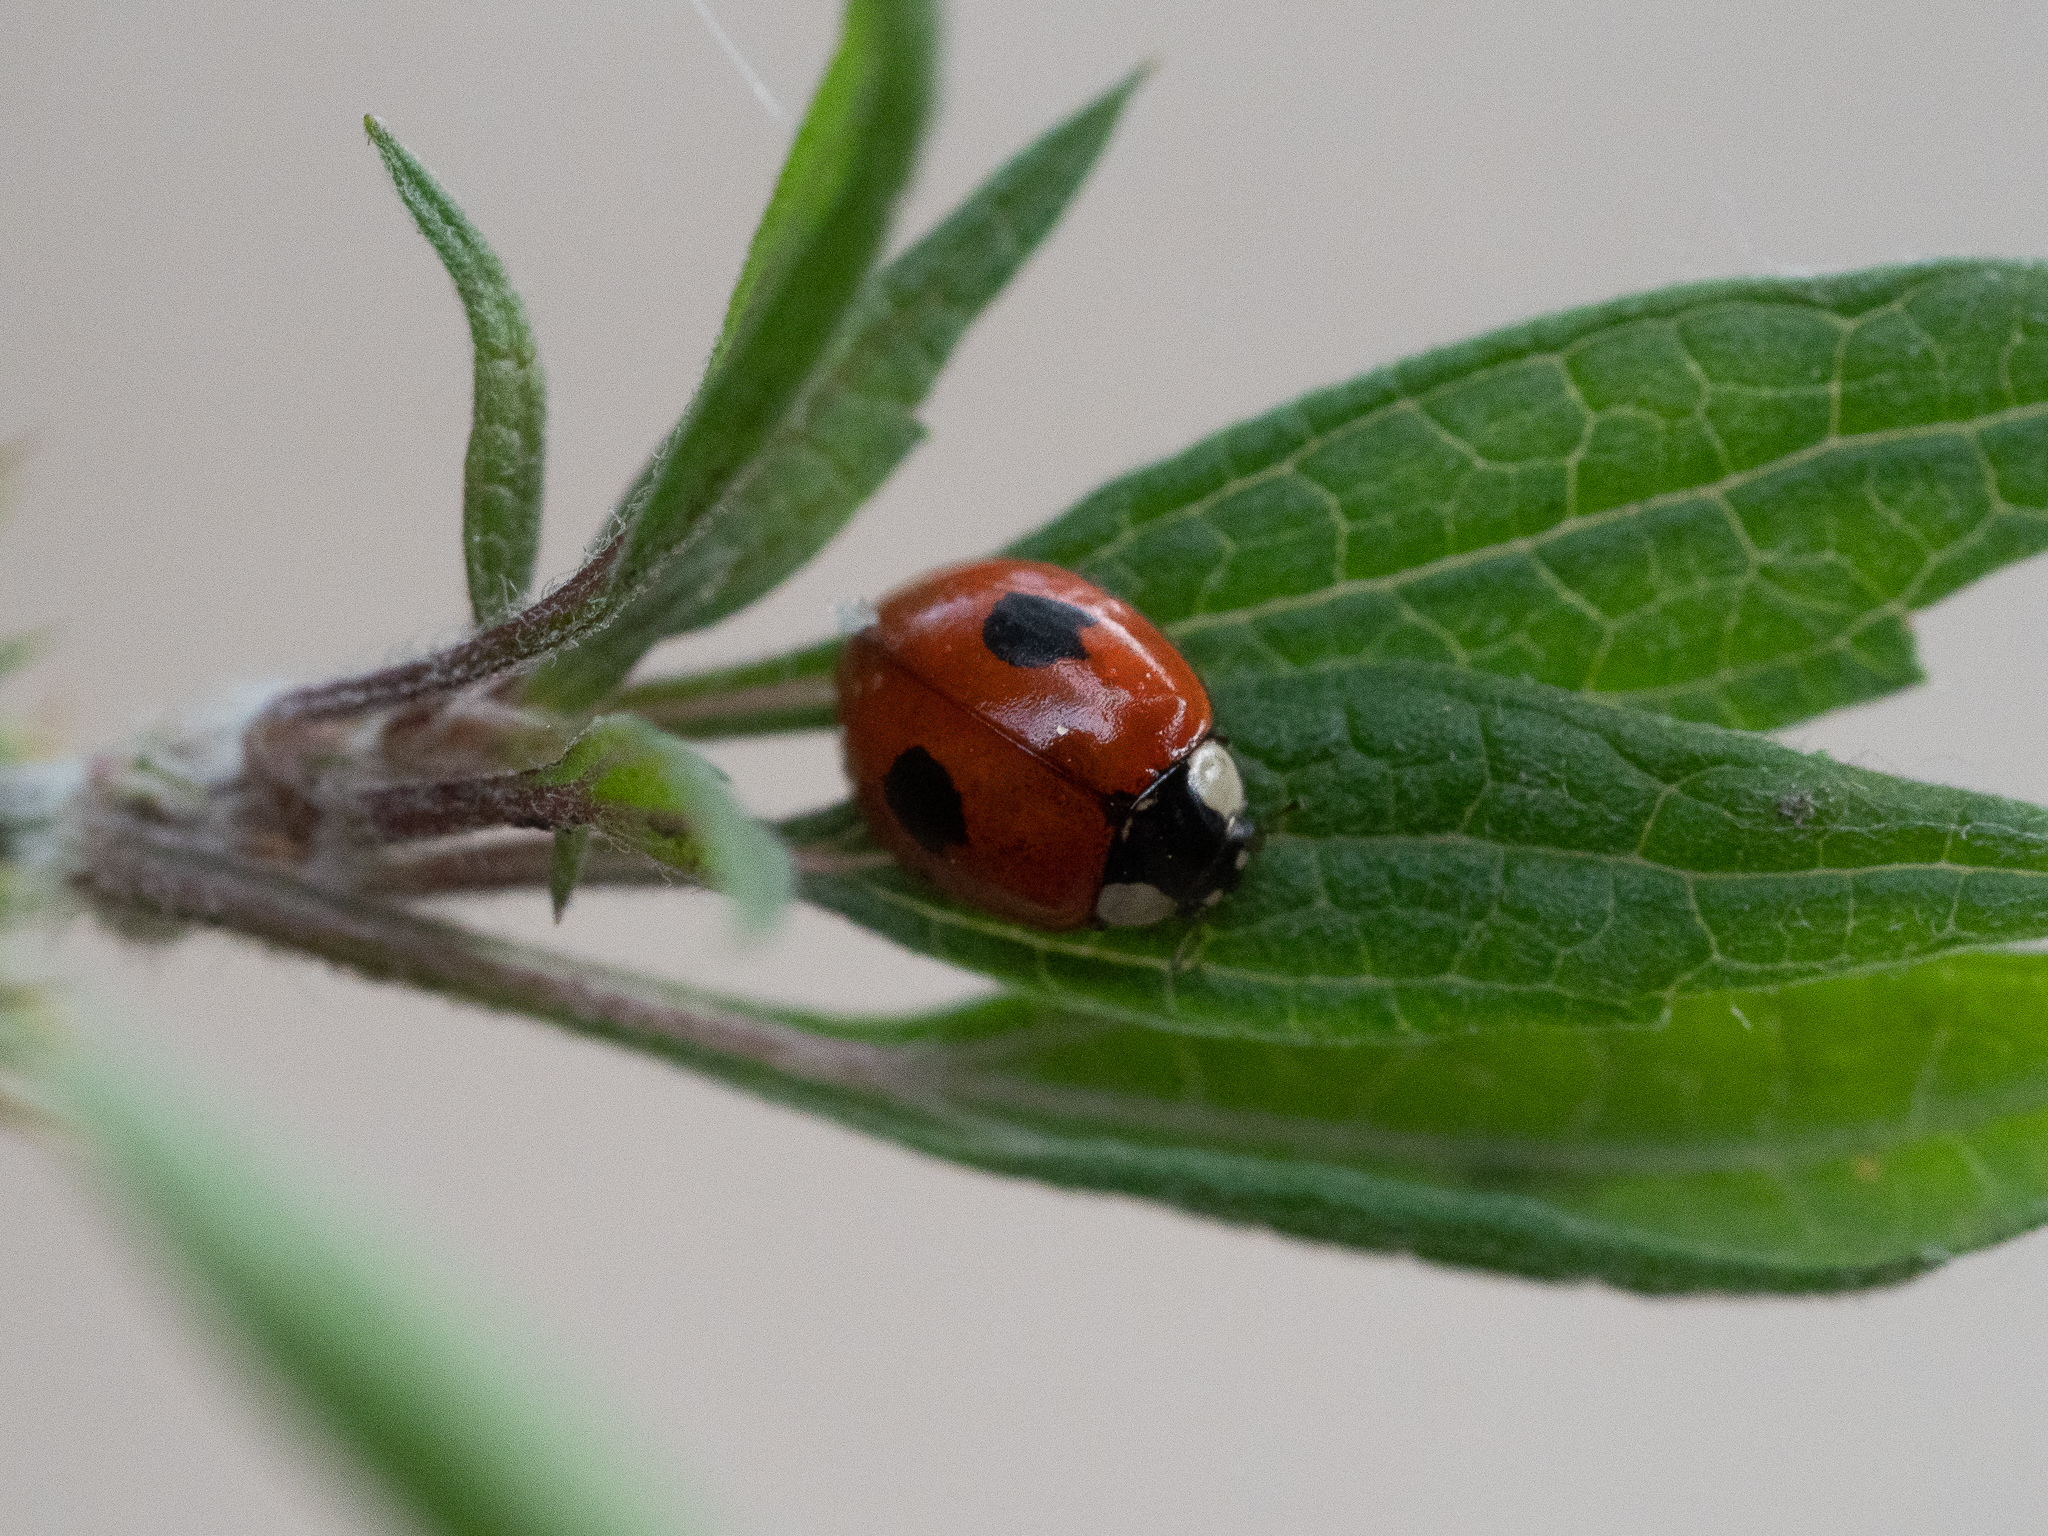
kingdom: Animalia
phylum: Arthropoda
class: Insecta
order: Coleoptera
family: Coccinellidae
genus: Adalia
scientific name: Adalia bipunctata
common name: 2-spot ladybird
